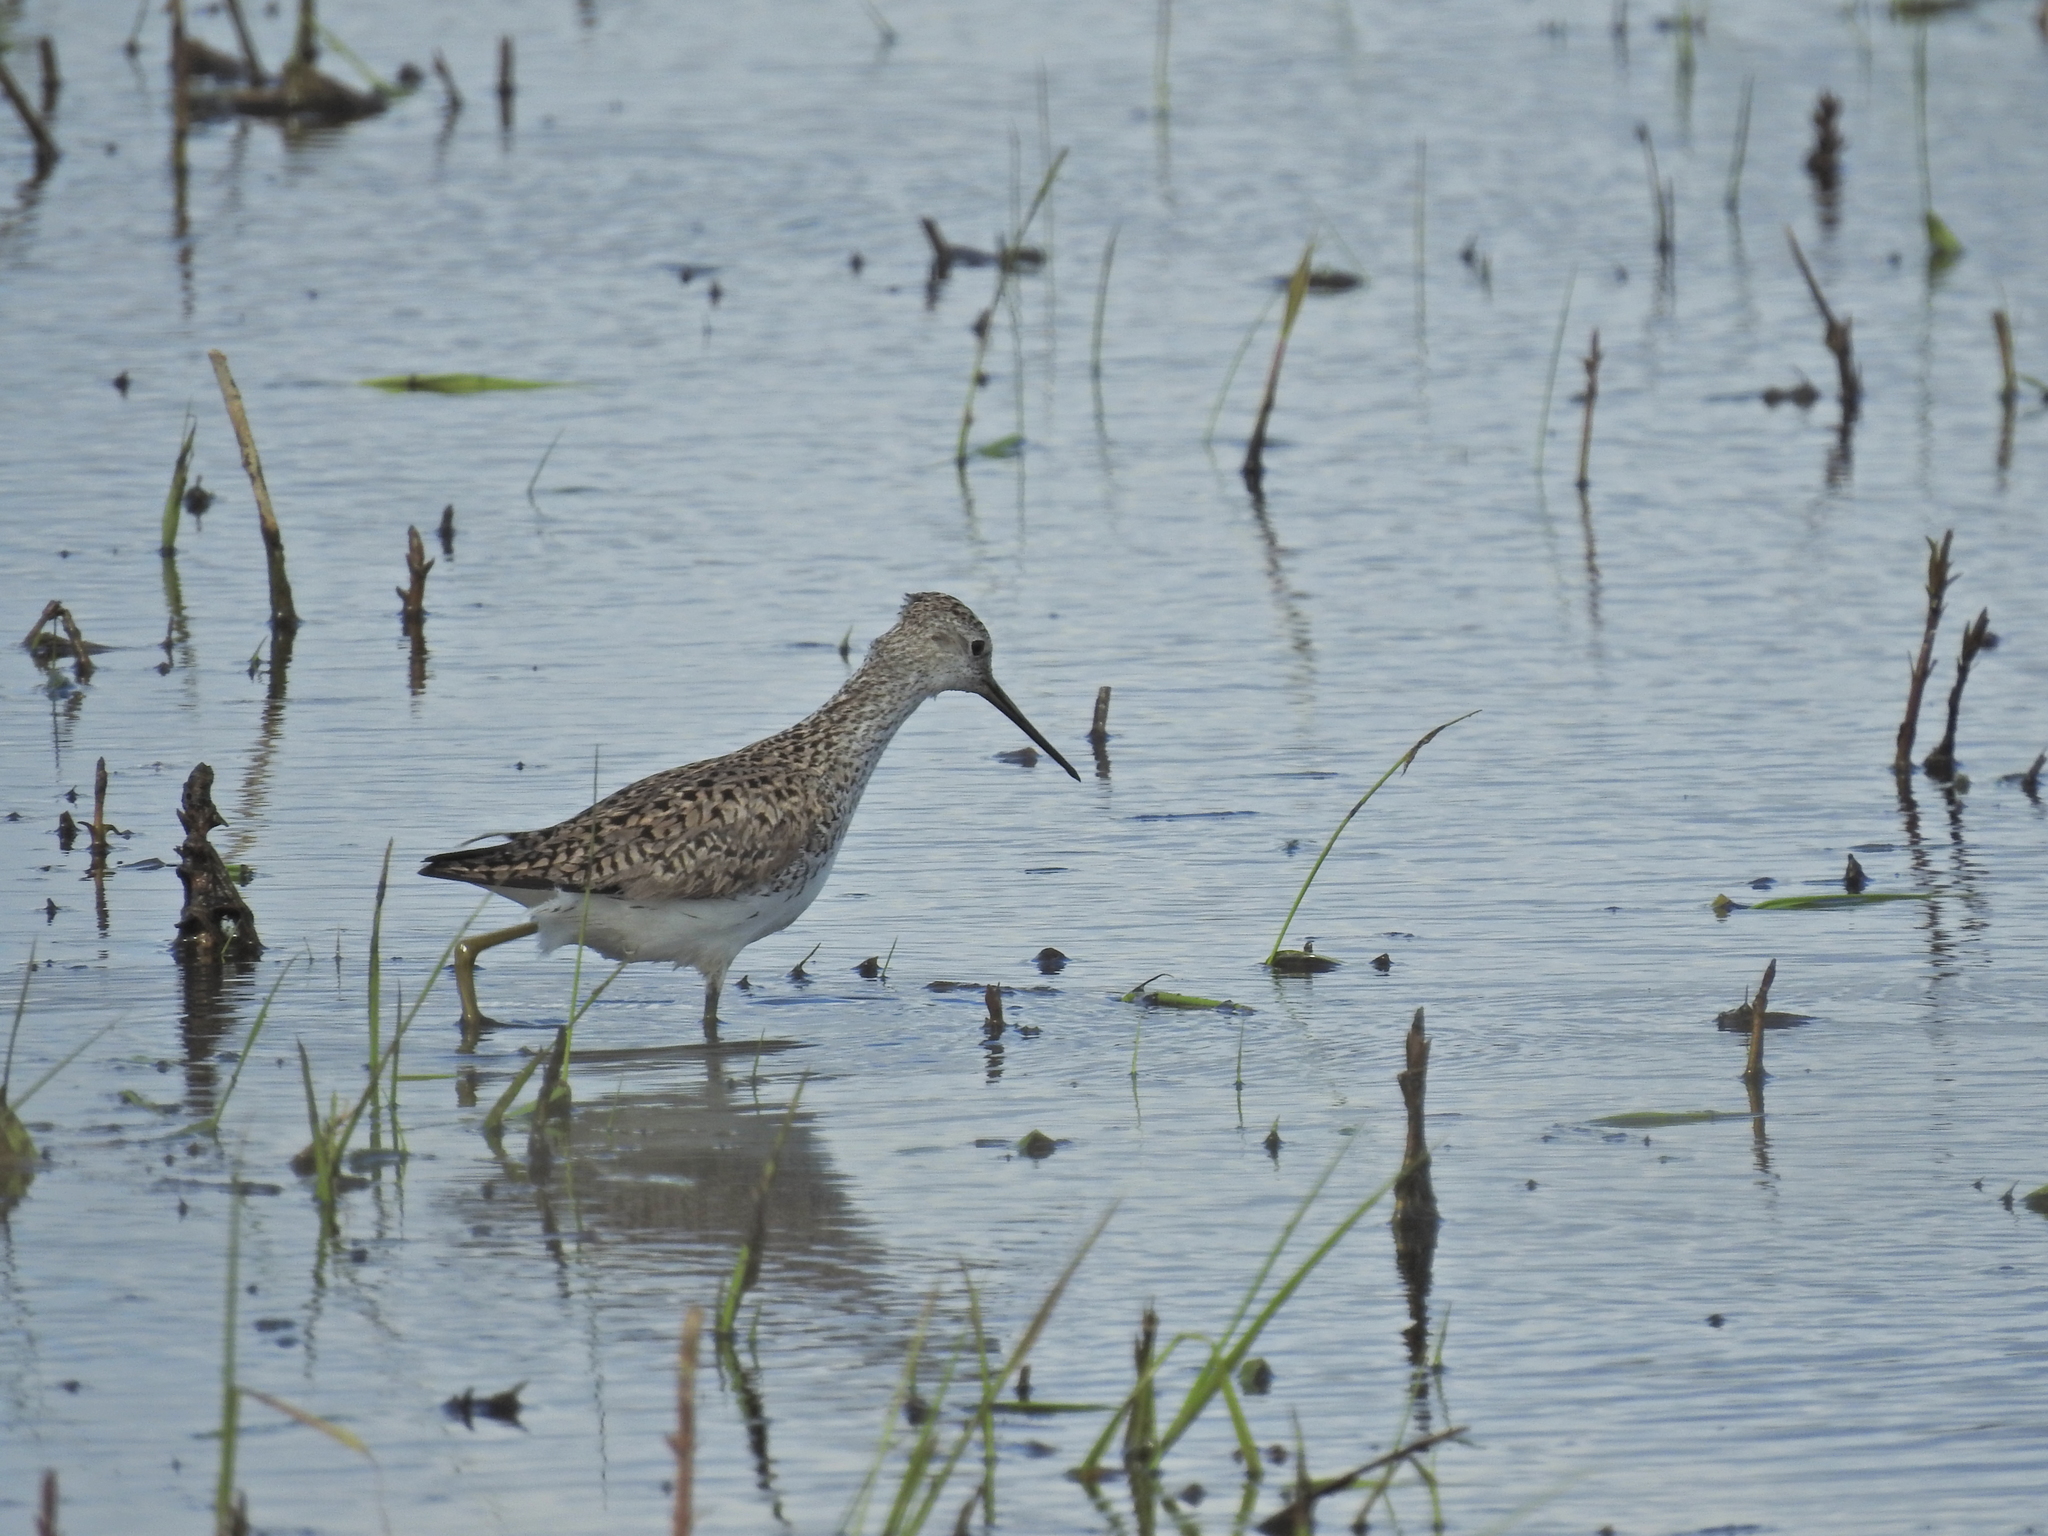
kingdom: Animalia
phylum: Chordata
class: Aves
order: Charadriiformes
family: Scolopacidae
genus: Tringa
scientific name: Tringa stagnatilis
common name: Marsh sandpiper
